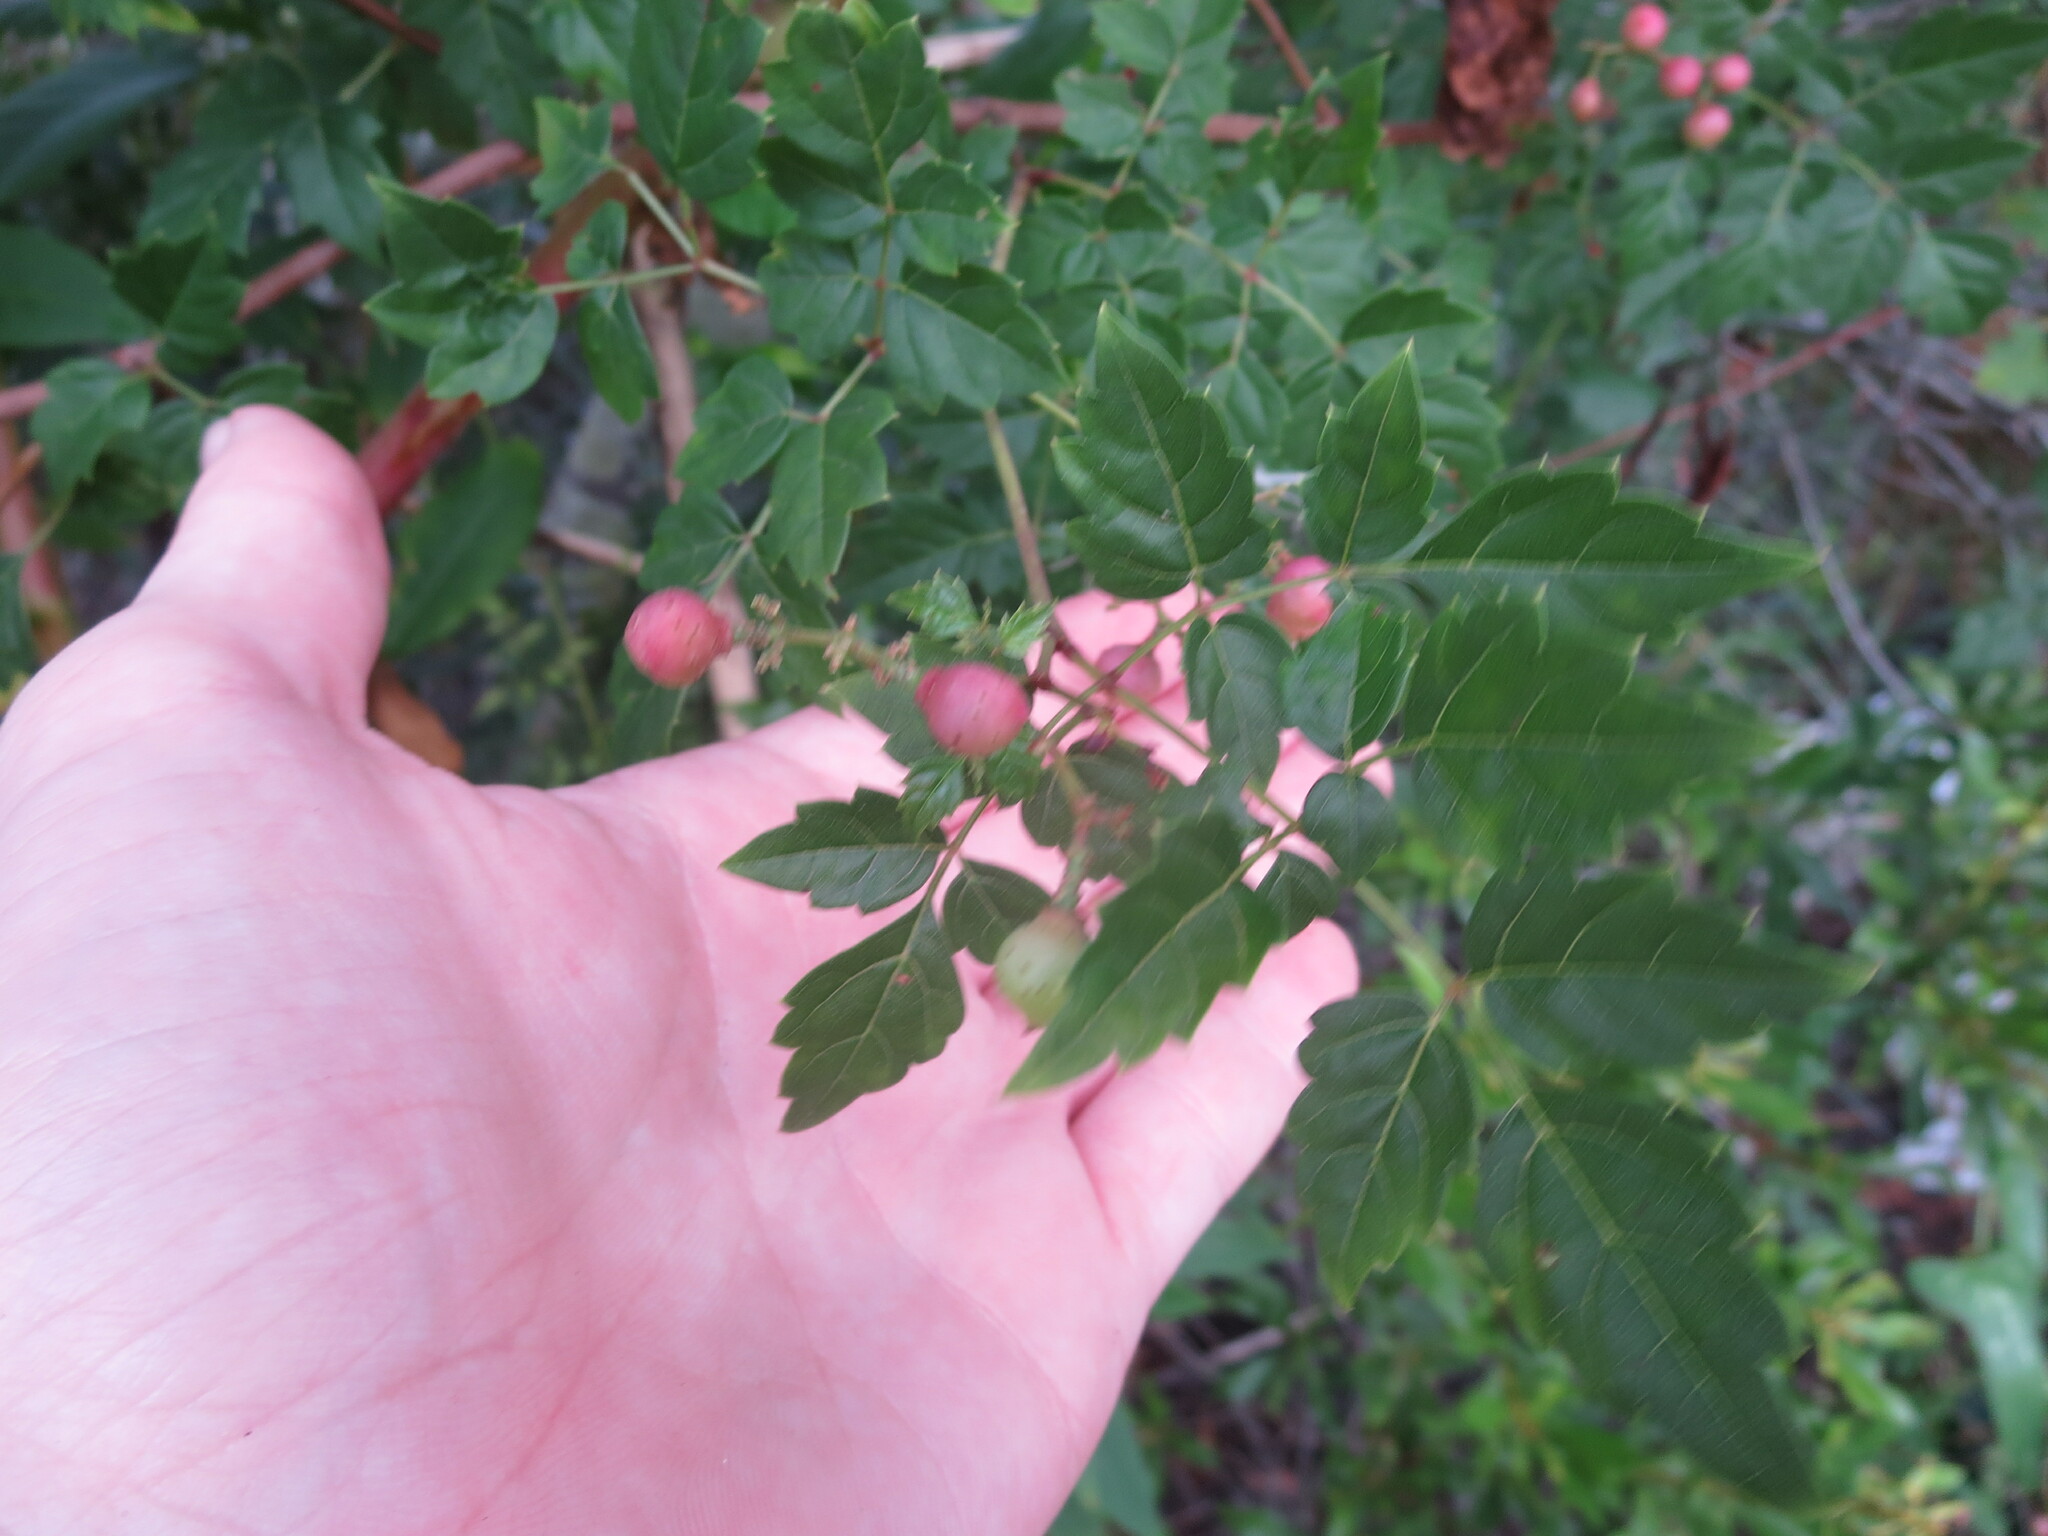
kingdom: Plantae
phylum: Tracheophyta
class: Magnoliopsida
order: Vitales
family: Vitaceae
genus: Nekemias
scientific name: Nekemias arborea
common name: Peppervine
